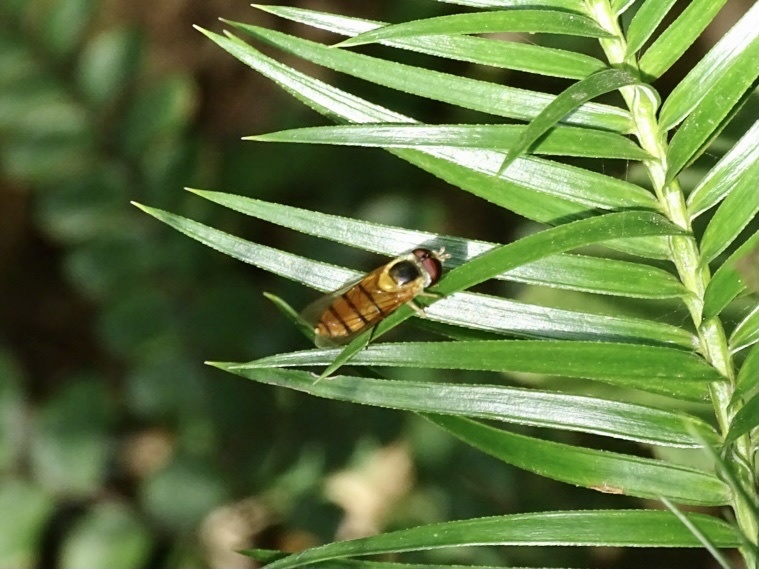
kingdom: Animalia
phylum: Arthropoda
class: Insecta
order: Diptera
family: Syrphidae
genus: Asarkina
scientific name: Asarkina porcina
